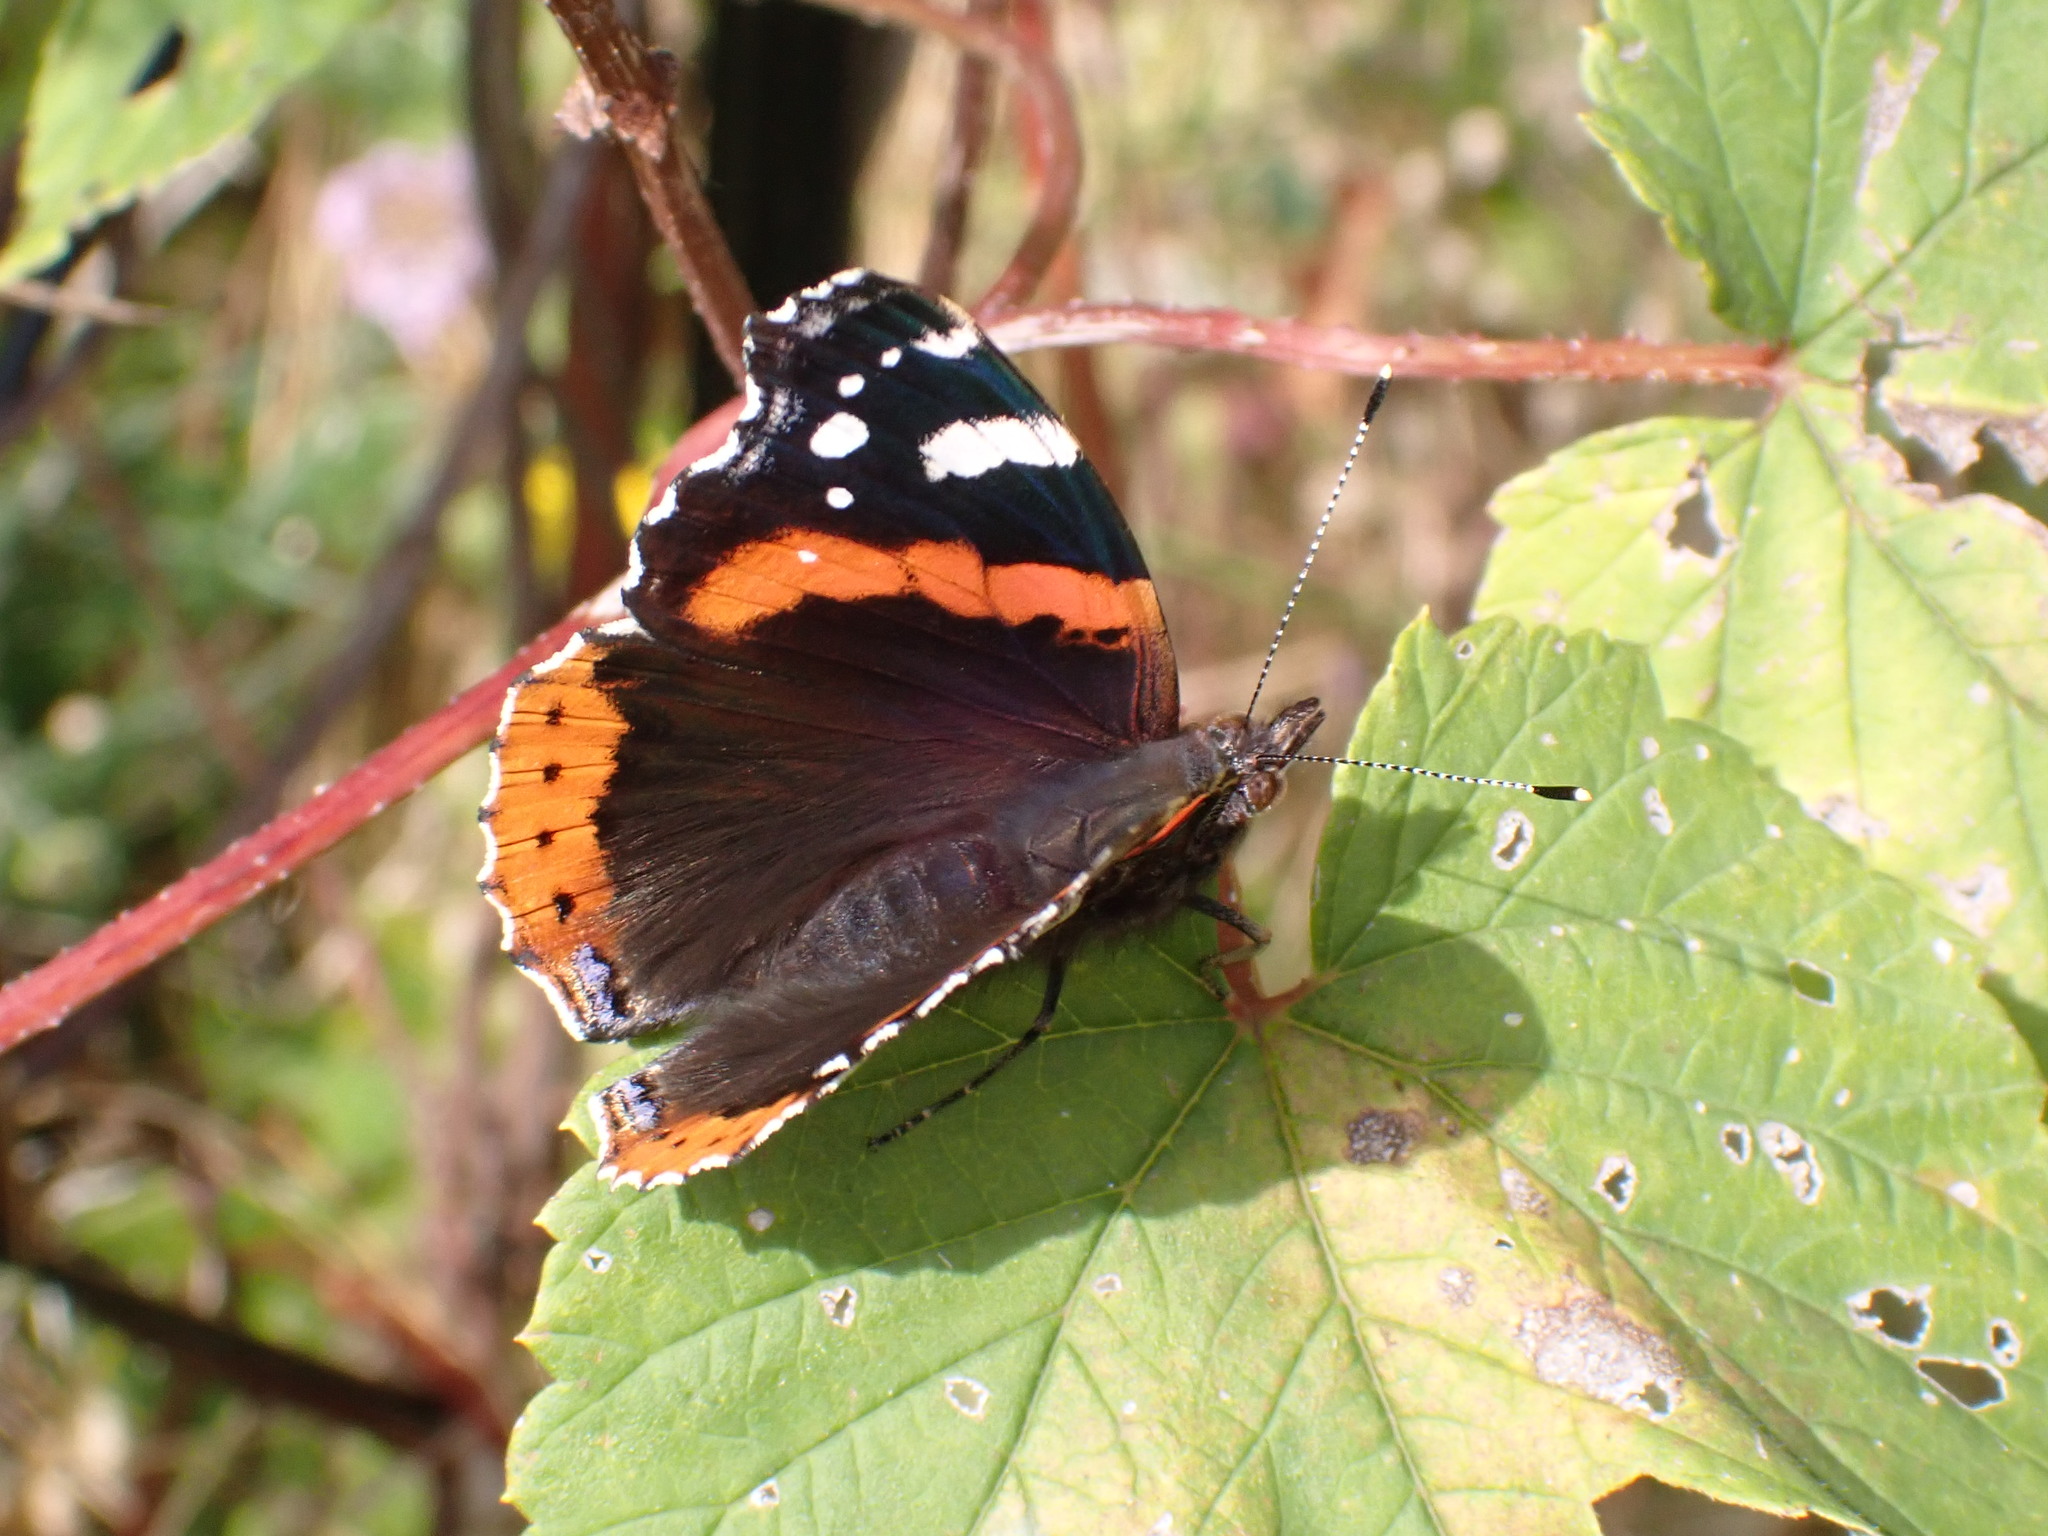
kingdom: Animalia
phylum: Arthropoda
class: Insecta
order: Lepidoptera
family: Nymphalidae
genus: Vanessa
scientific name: Vanessa atalanta
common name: Red admiral
